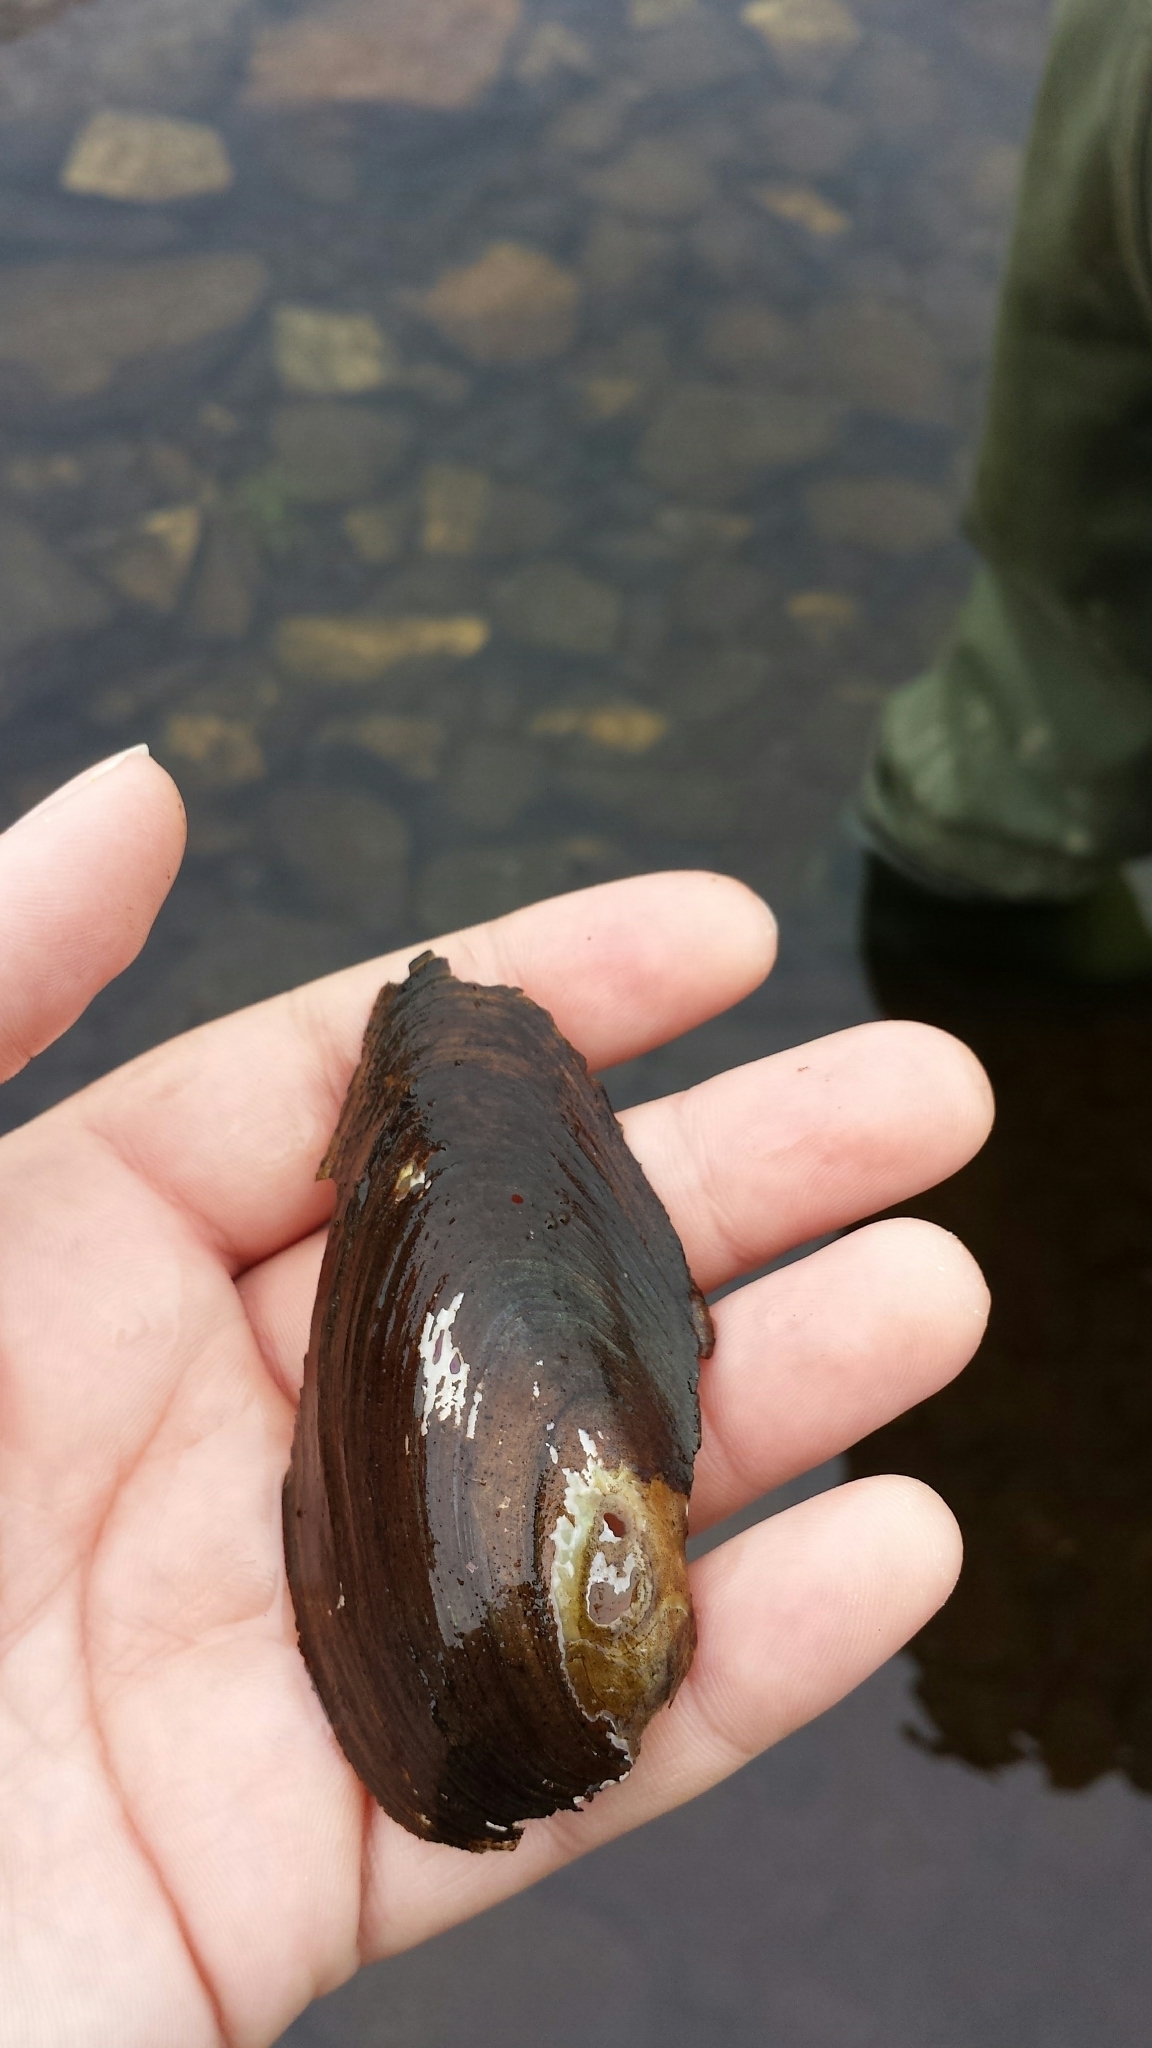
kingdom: Animalia
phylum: Mollusca
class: Bivalvia
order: Unionida
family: Unionidae
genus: Pyganodon
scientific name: Pyganodon cataracta
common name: Eastern floater
